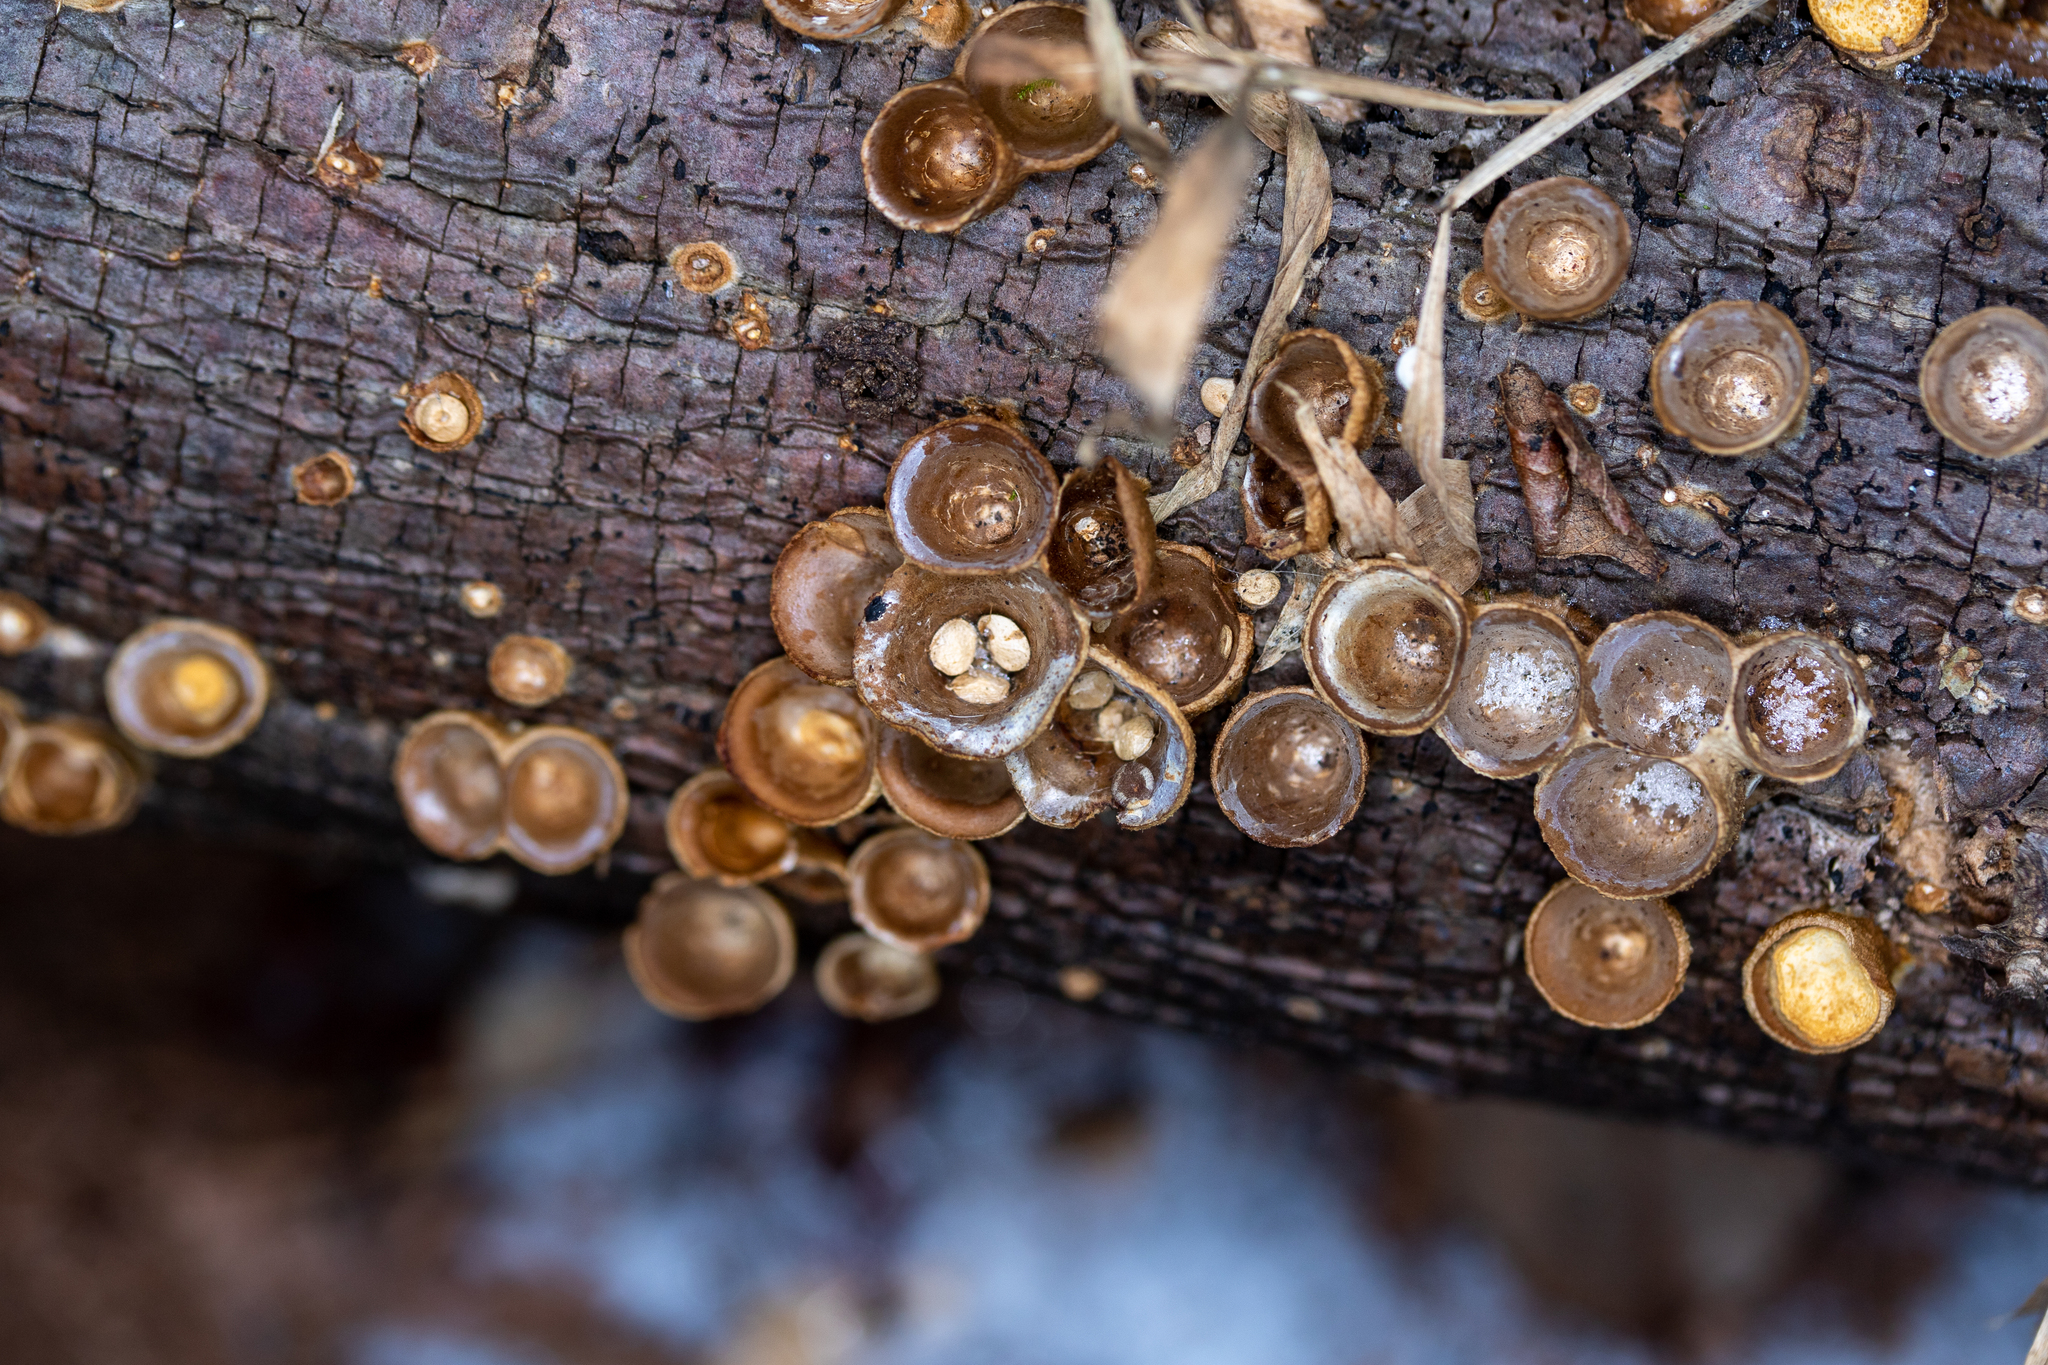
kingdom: Fungi
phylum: Basidiomycota
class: Agaricomycetes
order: Agaricales
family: Nidulariaceae
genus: Crucibulum
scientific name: Crucibulum laeve
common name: Common bird's nest
